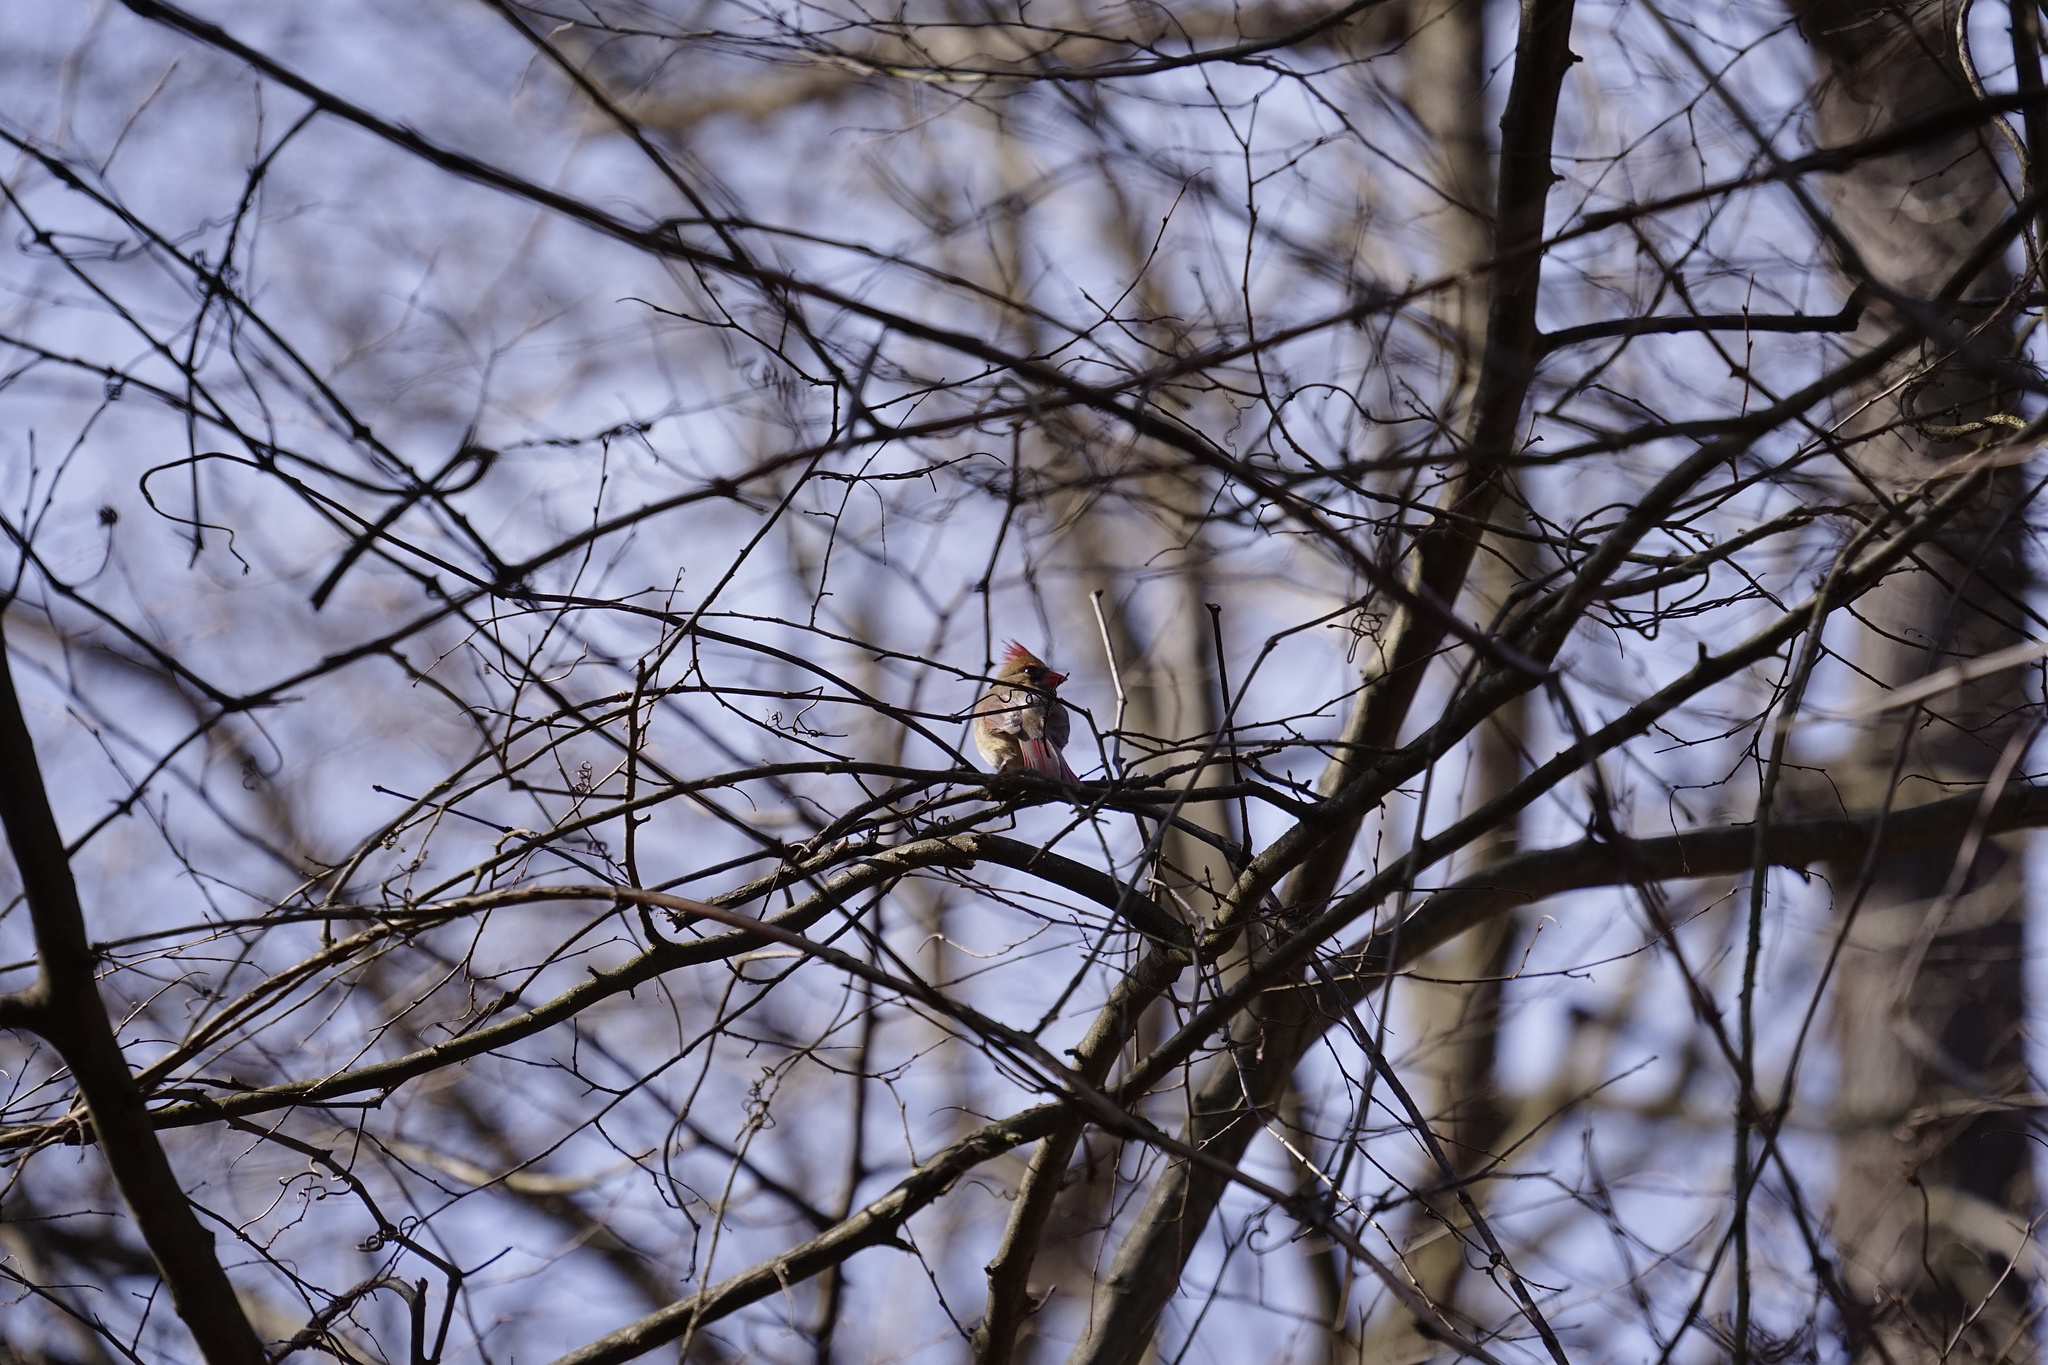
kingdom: Animalia
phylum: Chordata
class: Aves
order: Passeriformes
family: Cardinalidae
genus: Cardinalis
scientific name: Cardinalis cardinalis
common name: Northern cardinal
